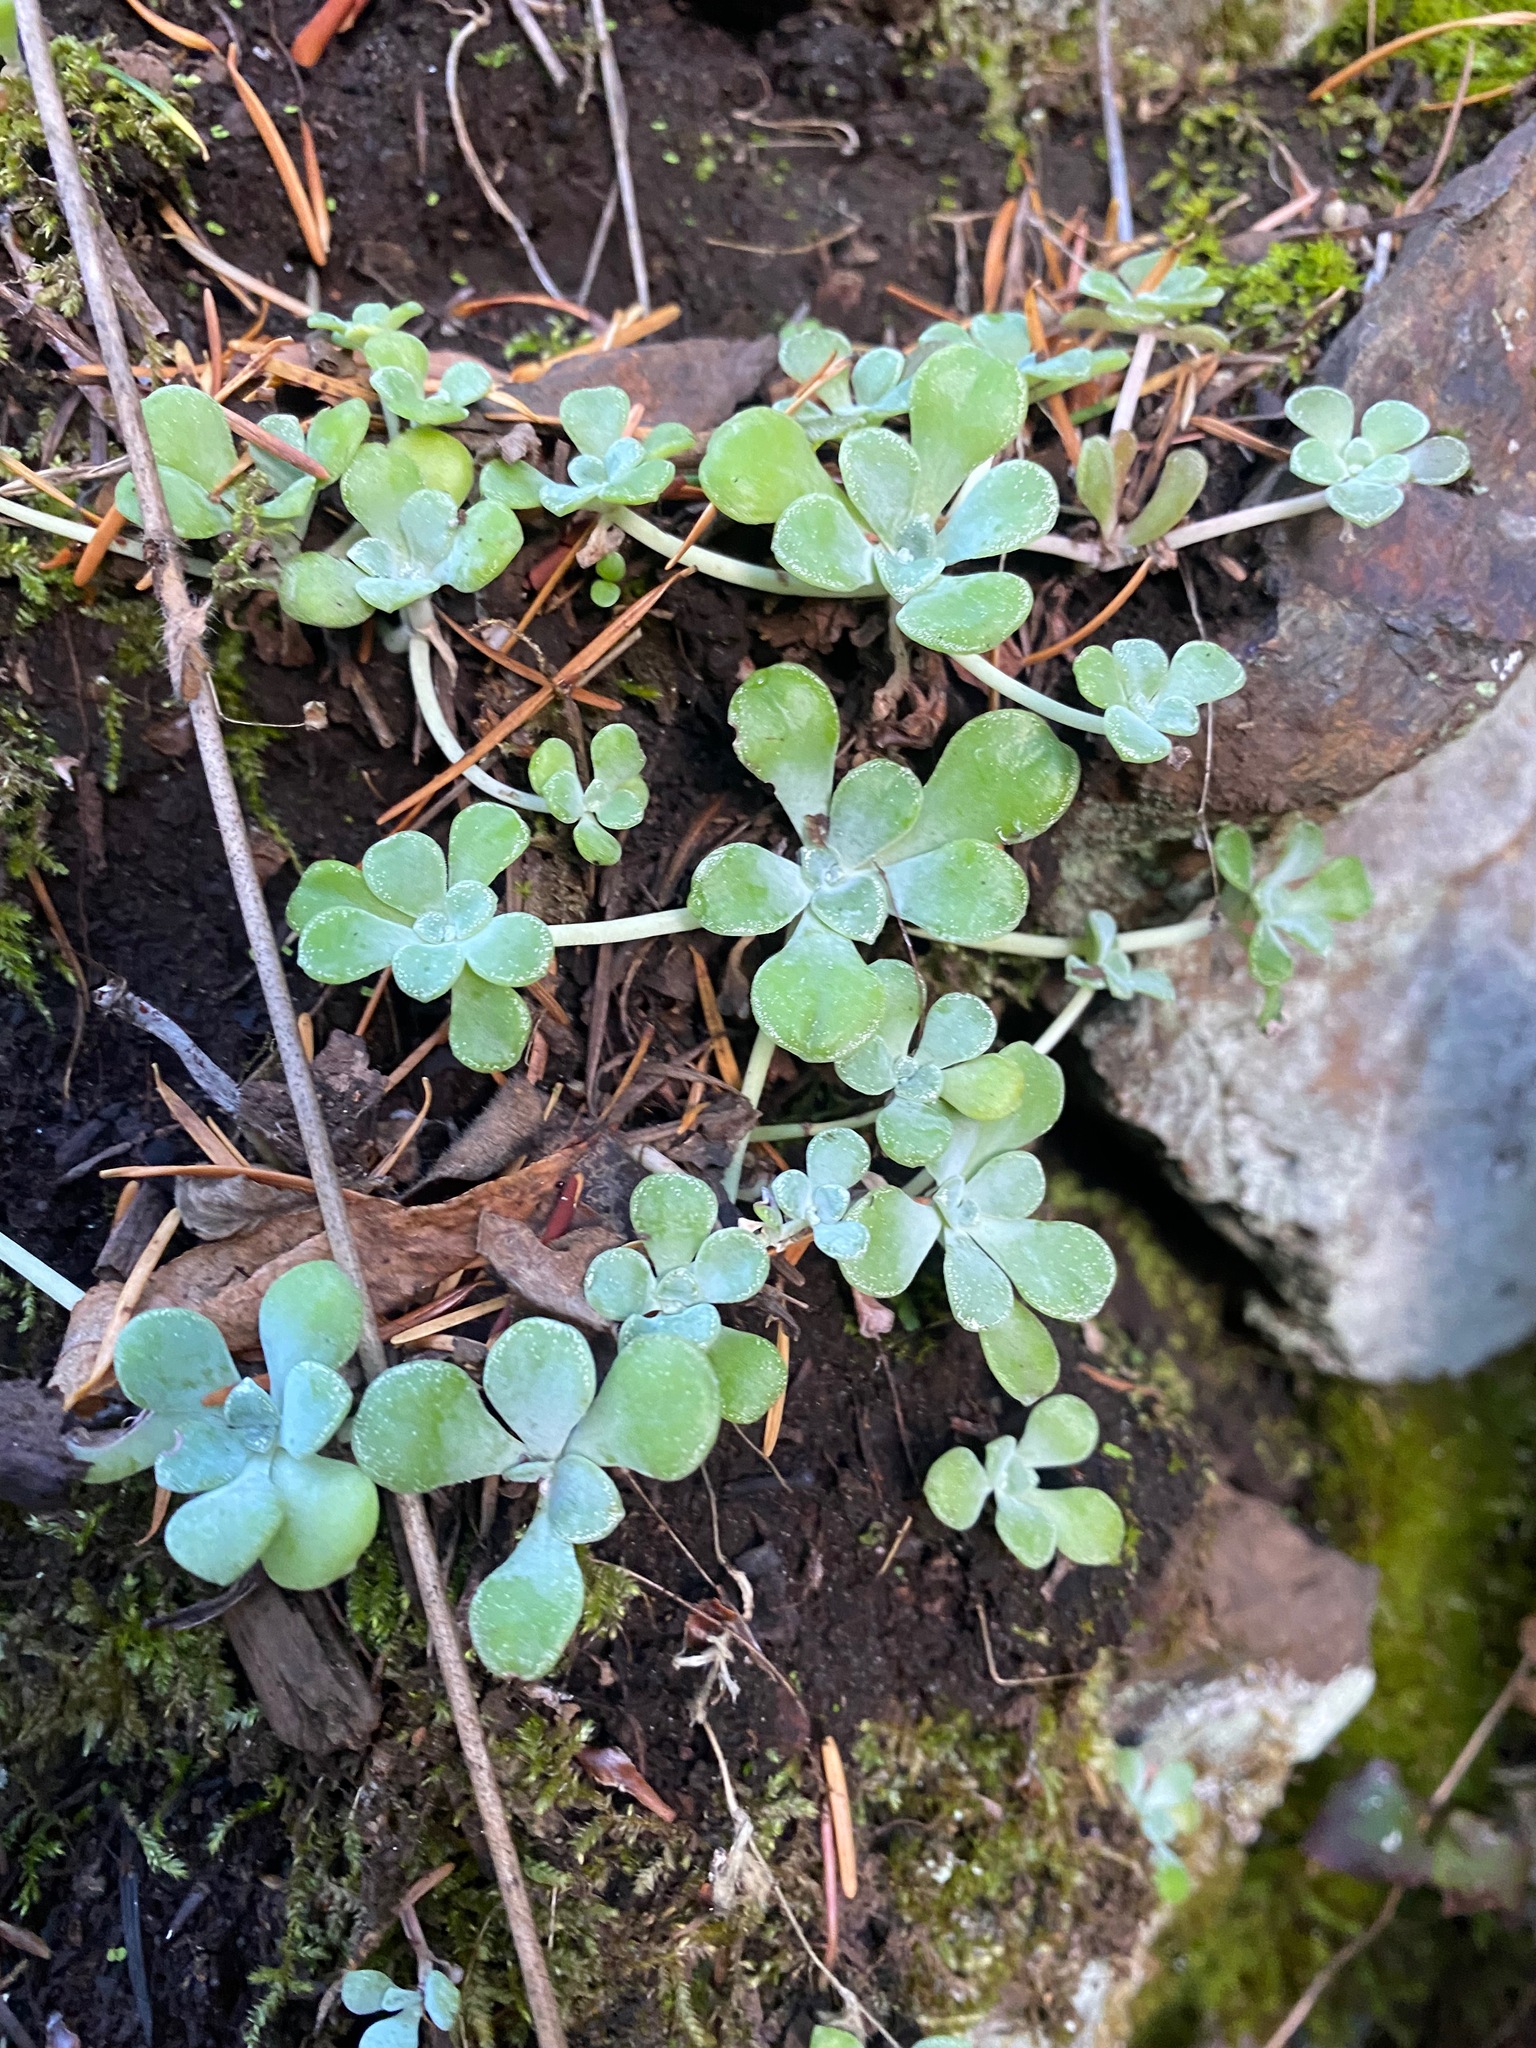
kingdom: Plantae
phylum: Tracheophyta
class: Magnoliopsida
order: Saxifragales
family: Crassulaceae
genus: Sedum
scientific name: Sedum spathulifolium
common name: Colorado stonecrop
